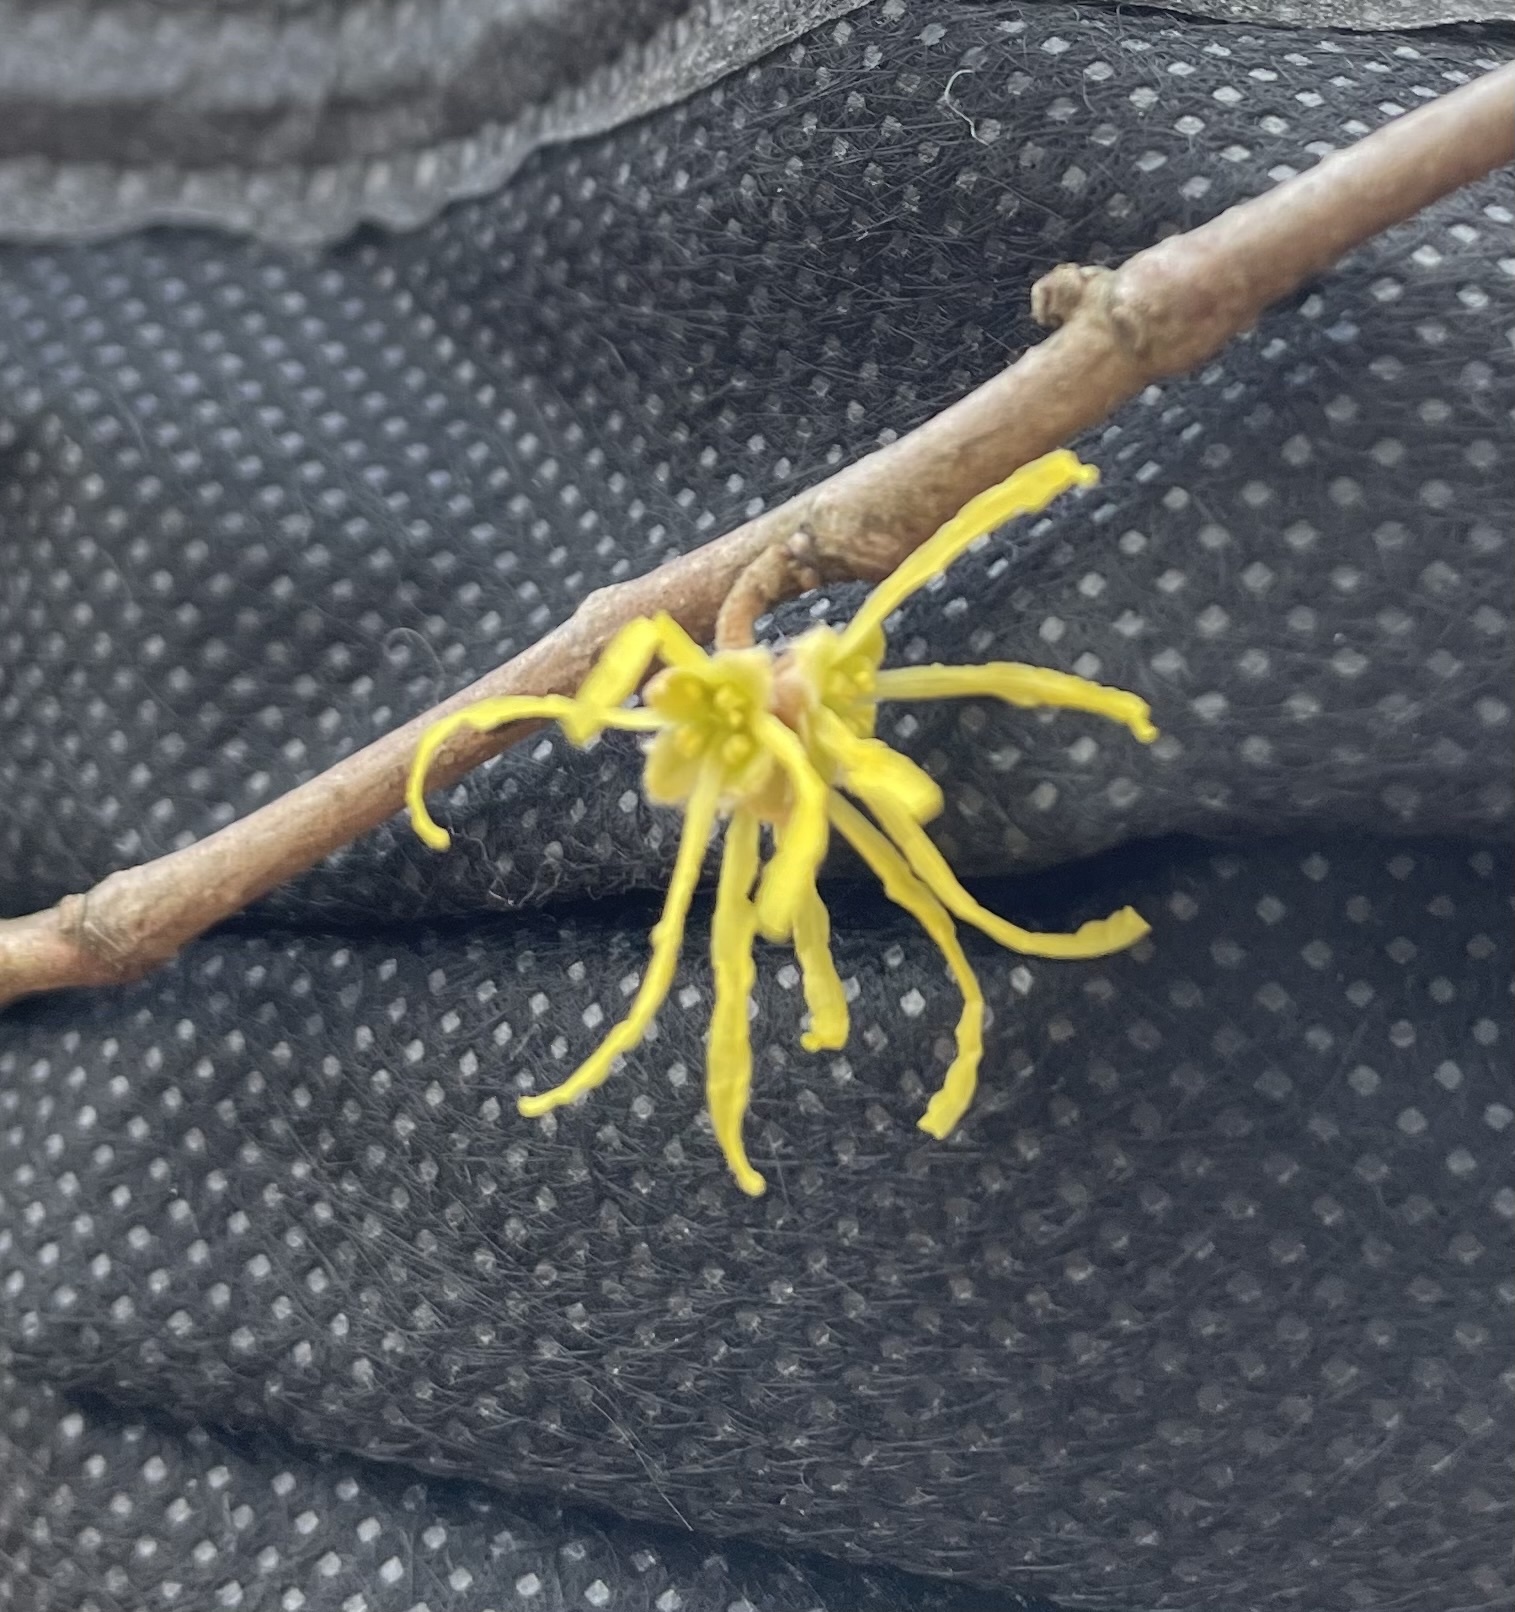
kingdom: Plantae
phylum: Tracheophyta
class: Magnoliopsida
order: Saxifragales
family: Hamamelidaceae
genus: Hamamelis
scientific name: Hamamelis virginiana
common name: Witch-hazel
